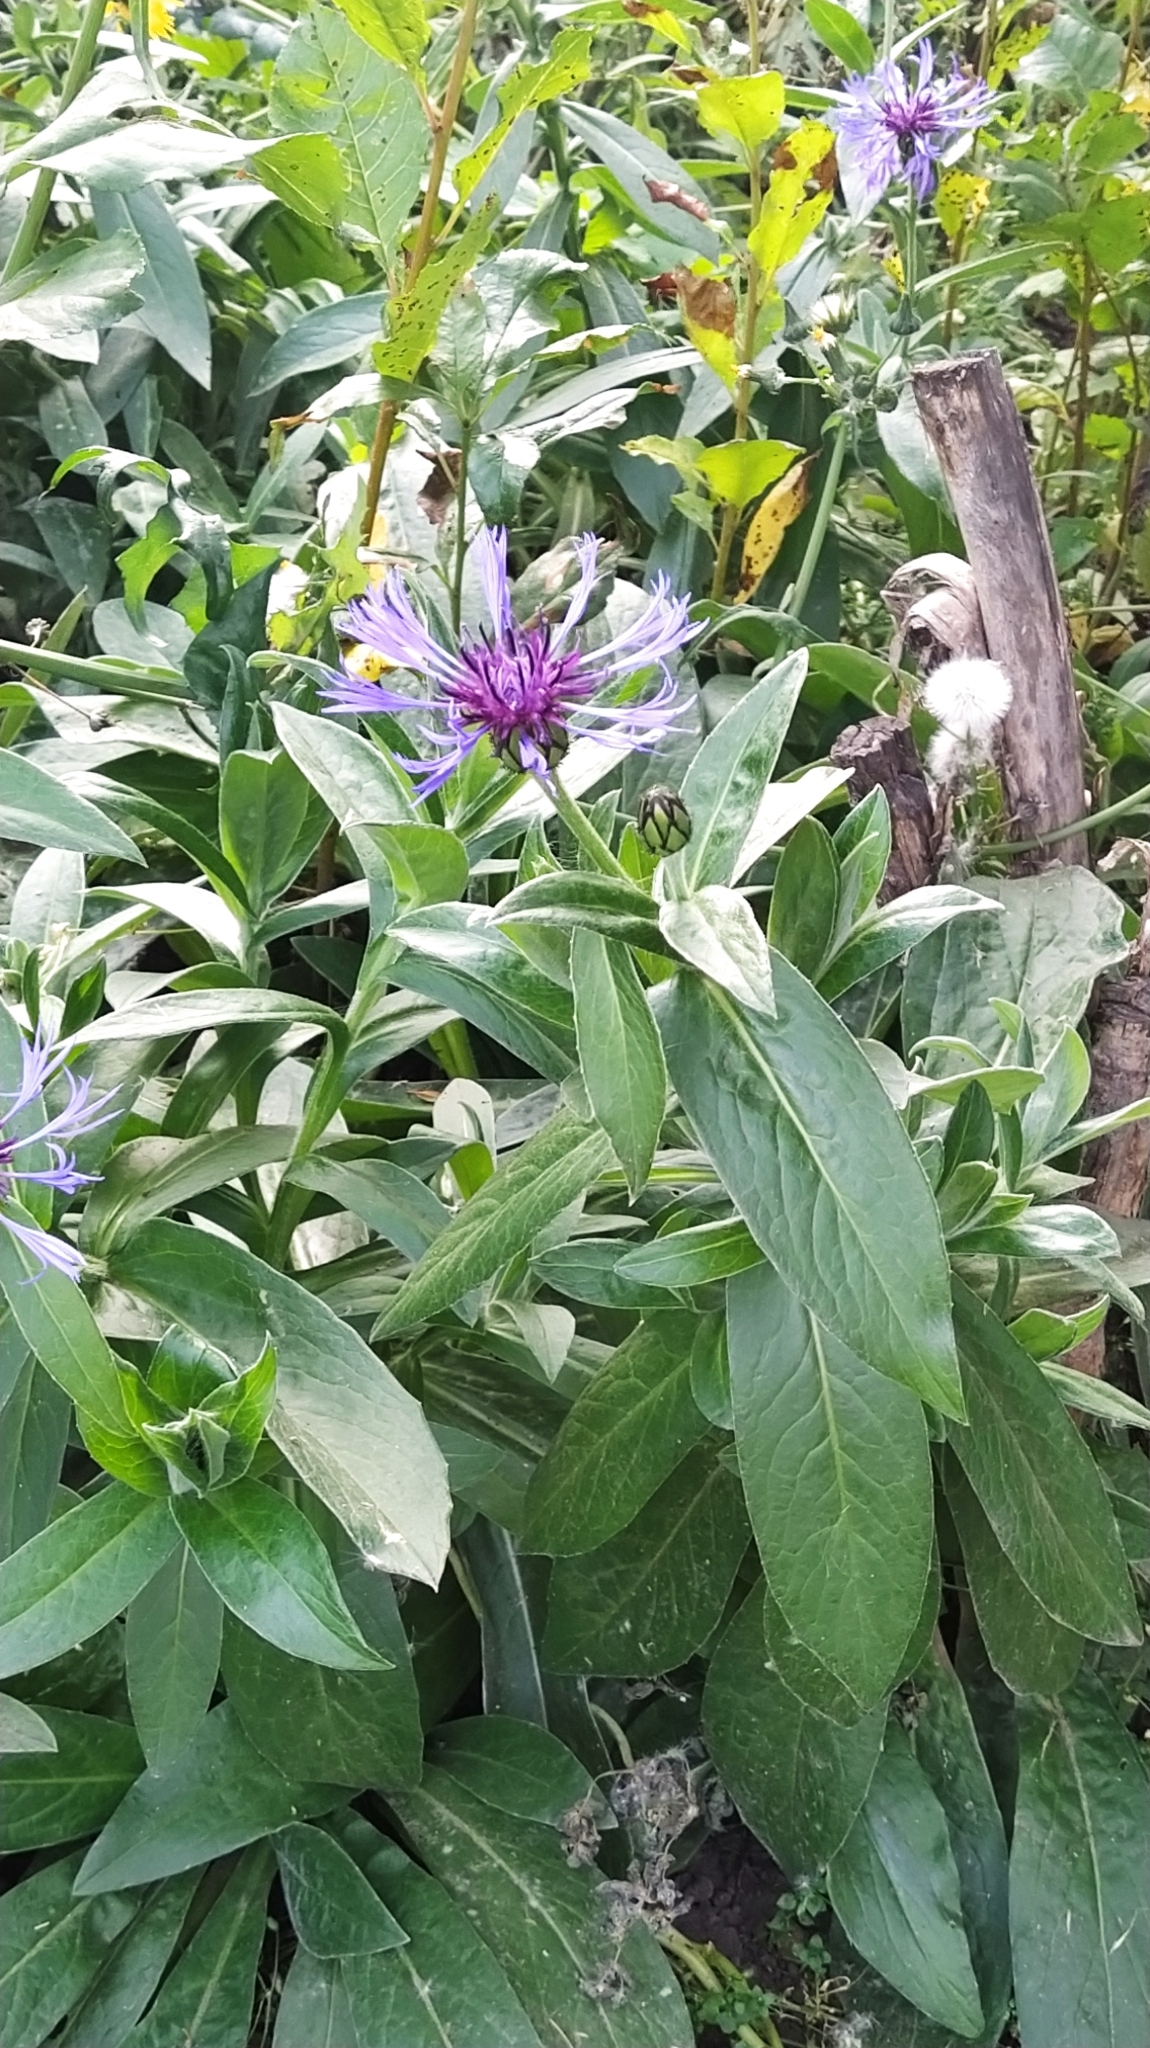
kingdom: Plantae
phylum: Tracheophyta
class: Magnoliopsida
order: Asterales
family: Asteraceae
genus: Centaurea
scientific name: Centaurea montana
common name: Perennial cornflower
